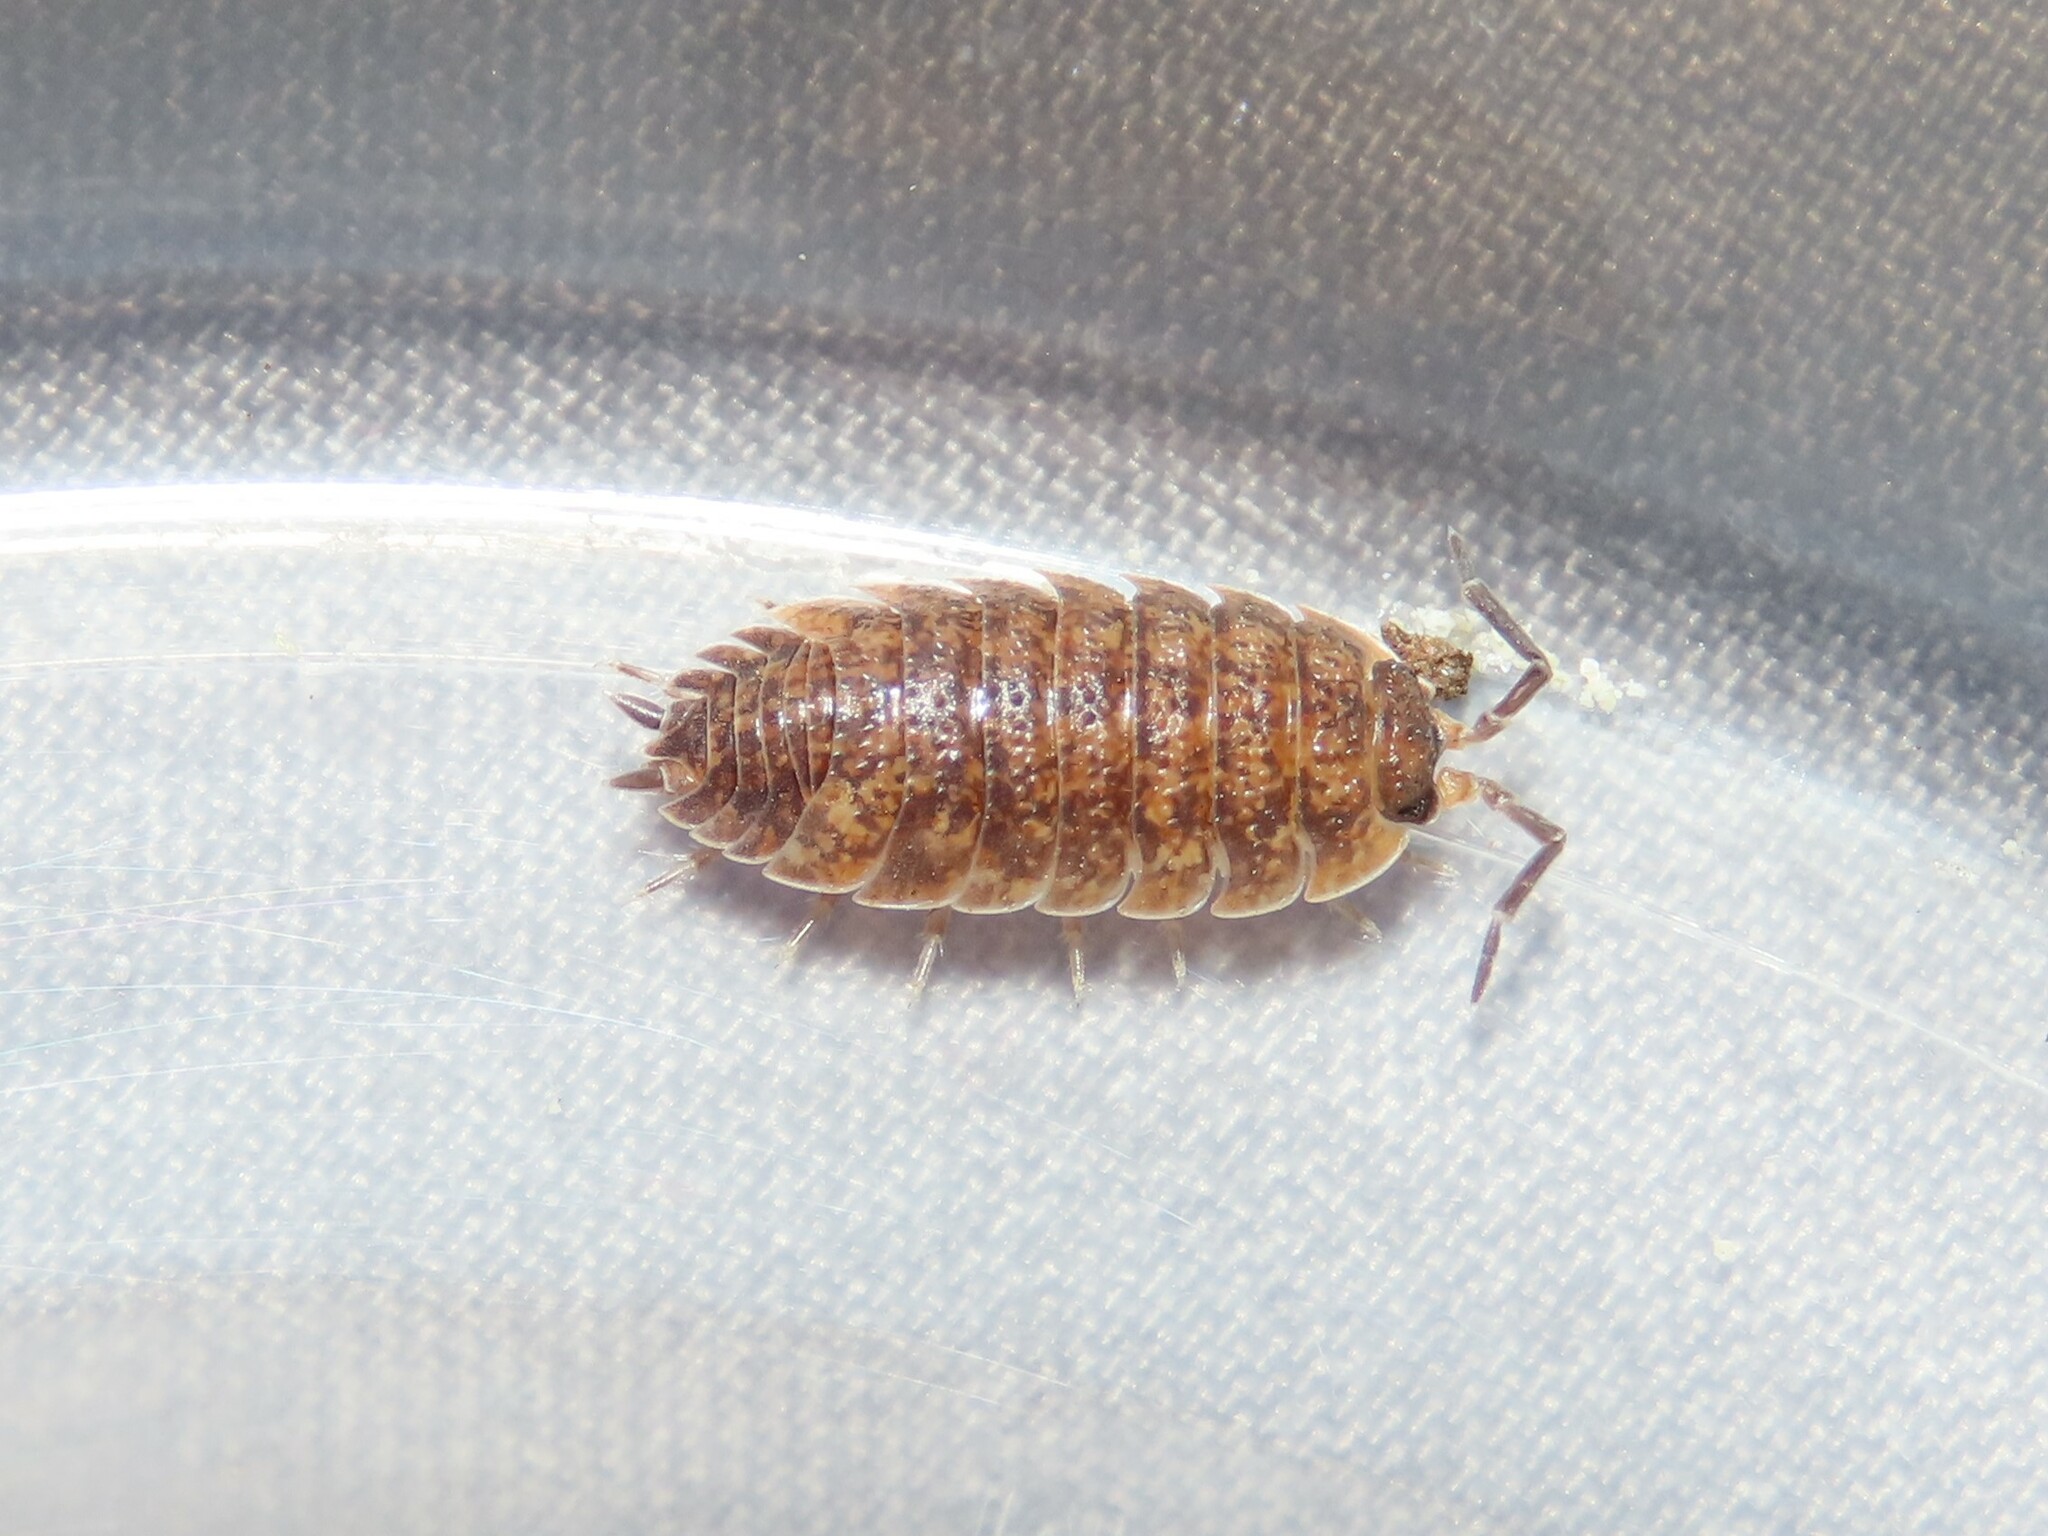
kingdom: Animalia
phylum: Arthropoda
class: Malacostraca
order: Isopoda
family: Porcellionidae
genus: Porcellio
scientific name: Porcellio scaber
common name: Common rough woodlouse
